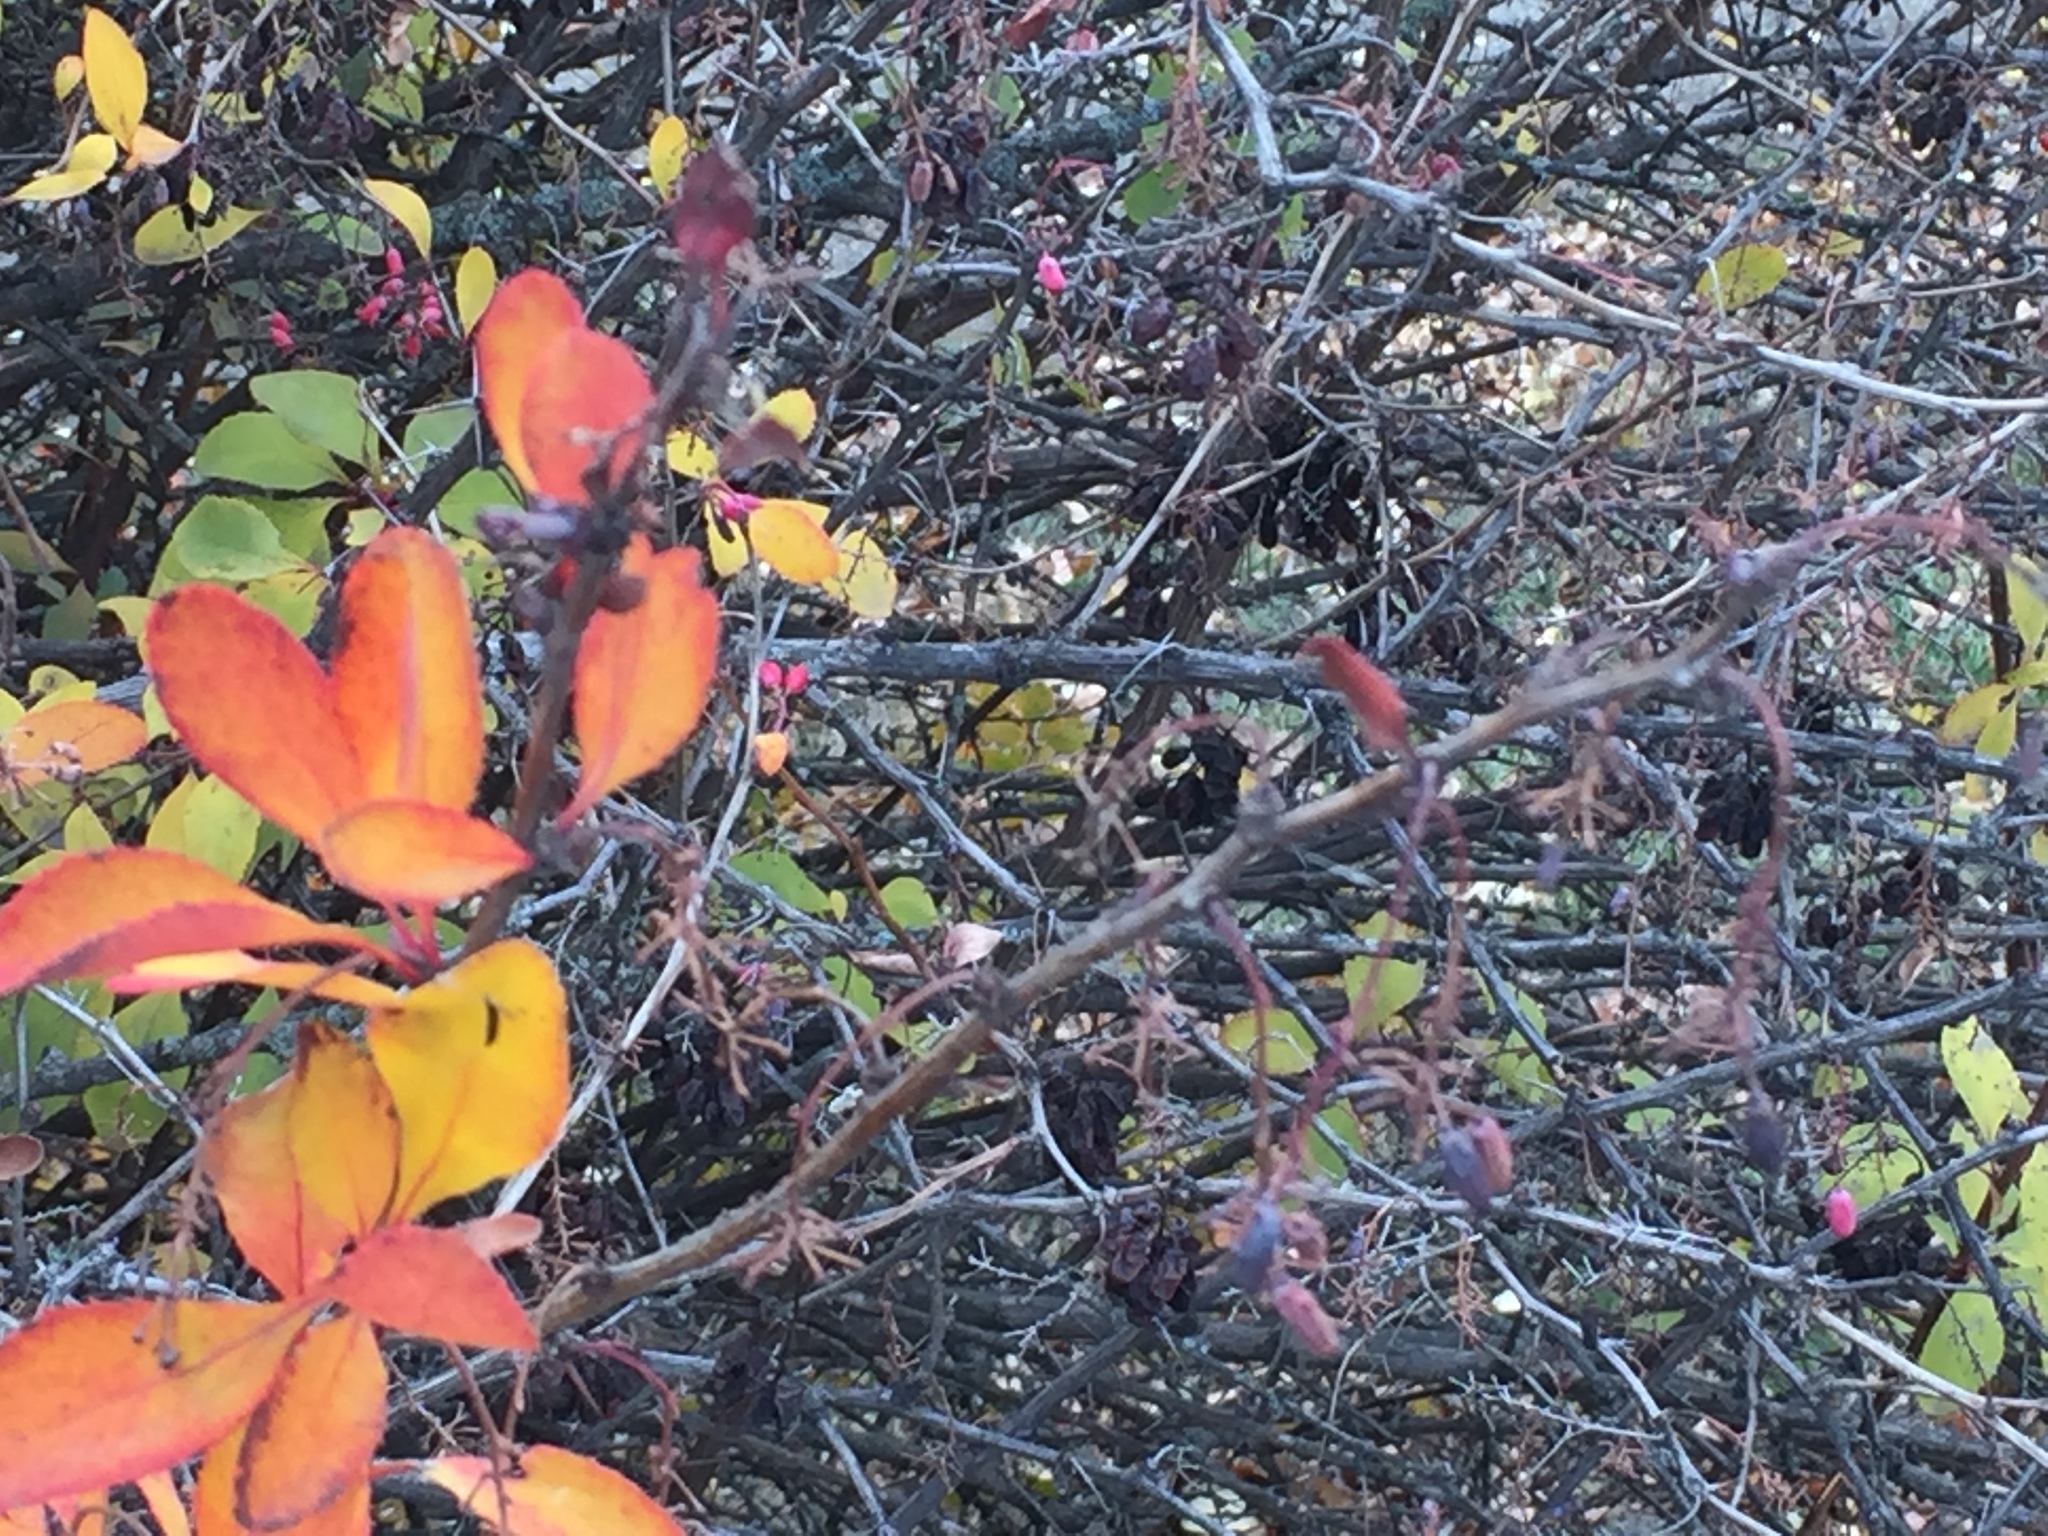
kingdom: Plantae
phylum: Tracheophyta
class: Magnoliopsida
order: Ranunculales
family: Berberidaceae
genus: Berberis
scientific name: Berberis vulgaris
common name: Barberry
